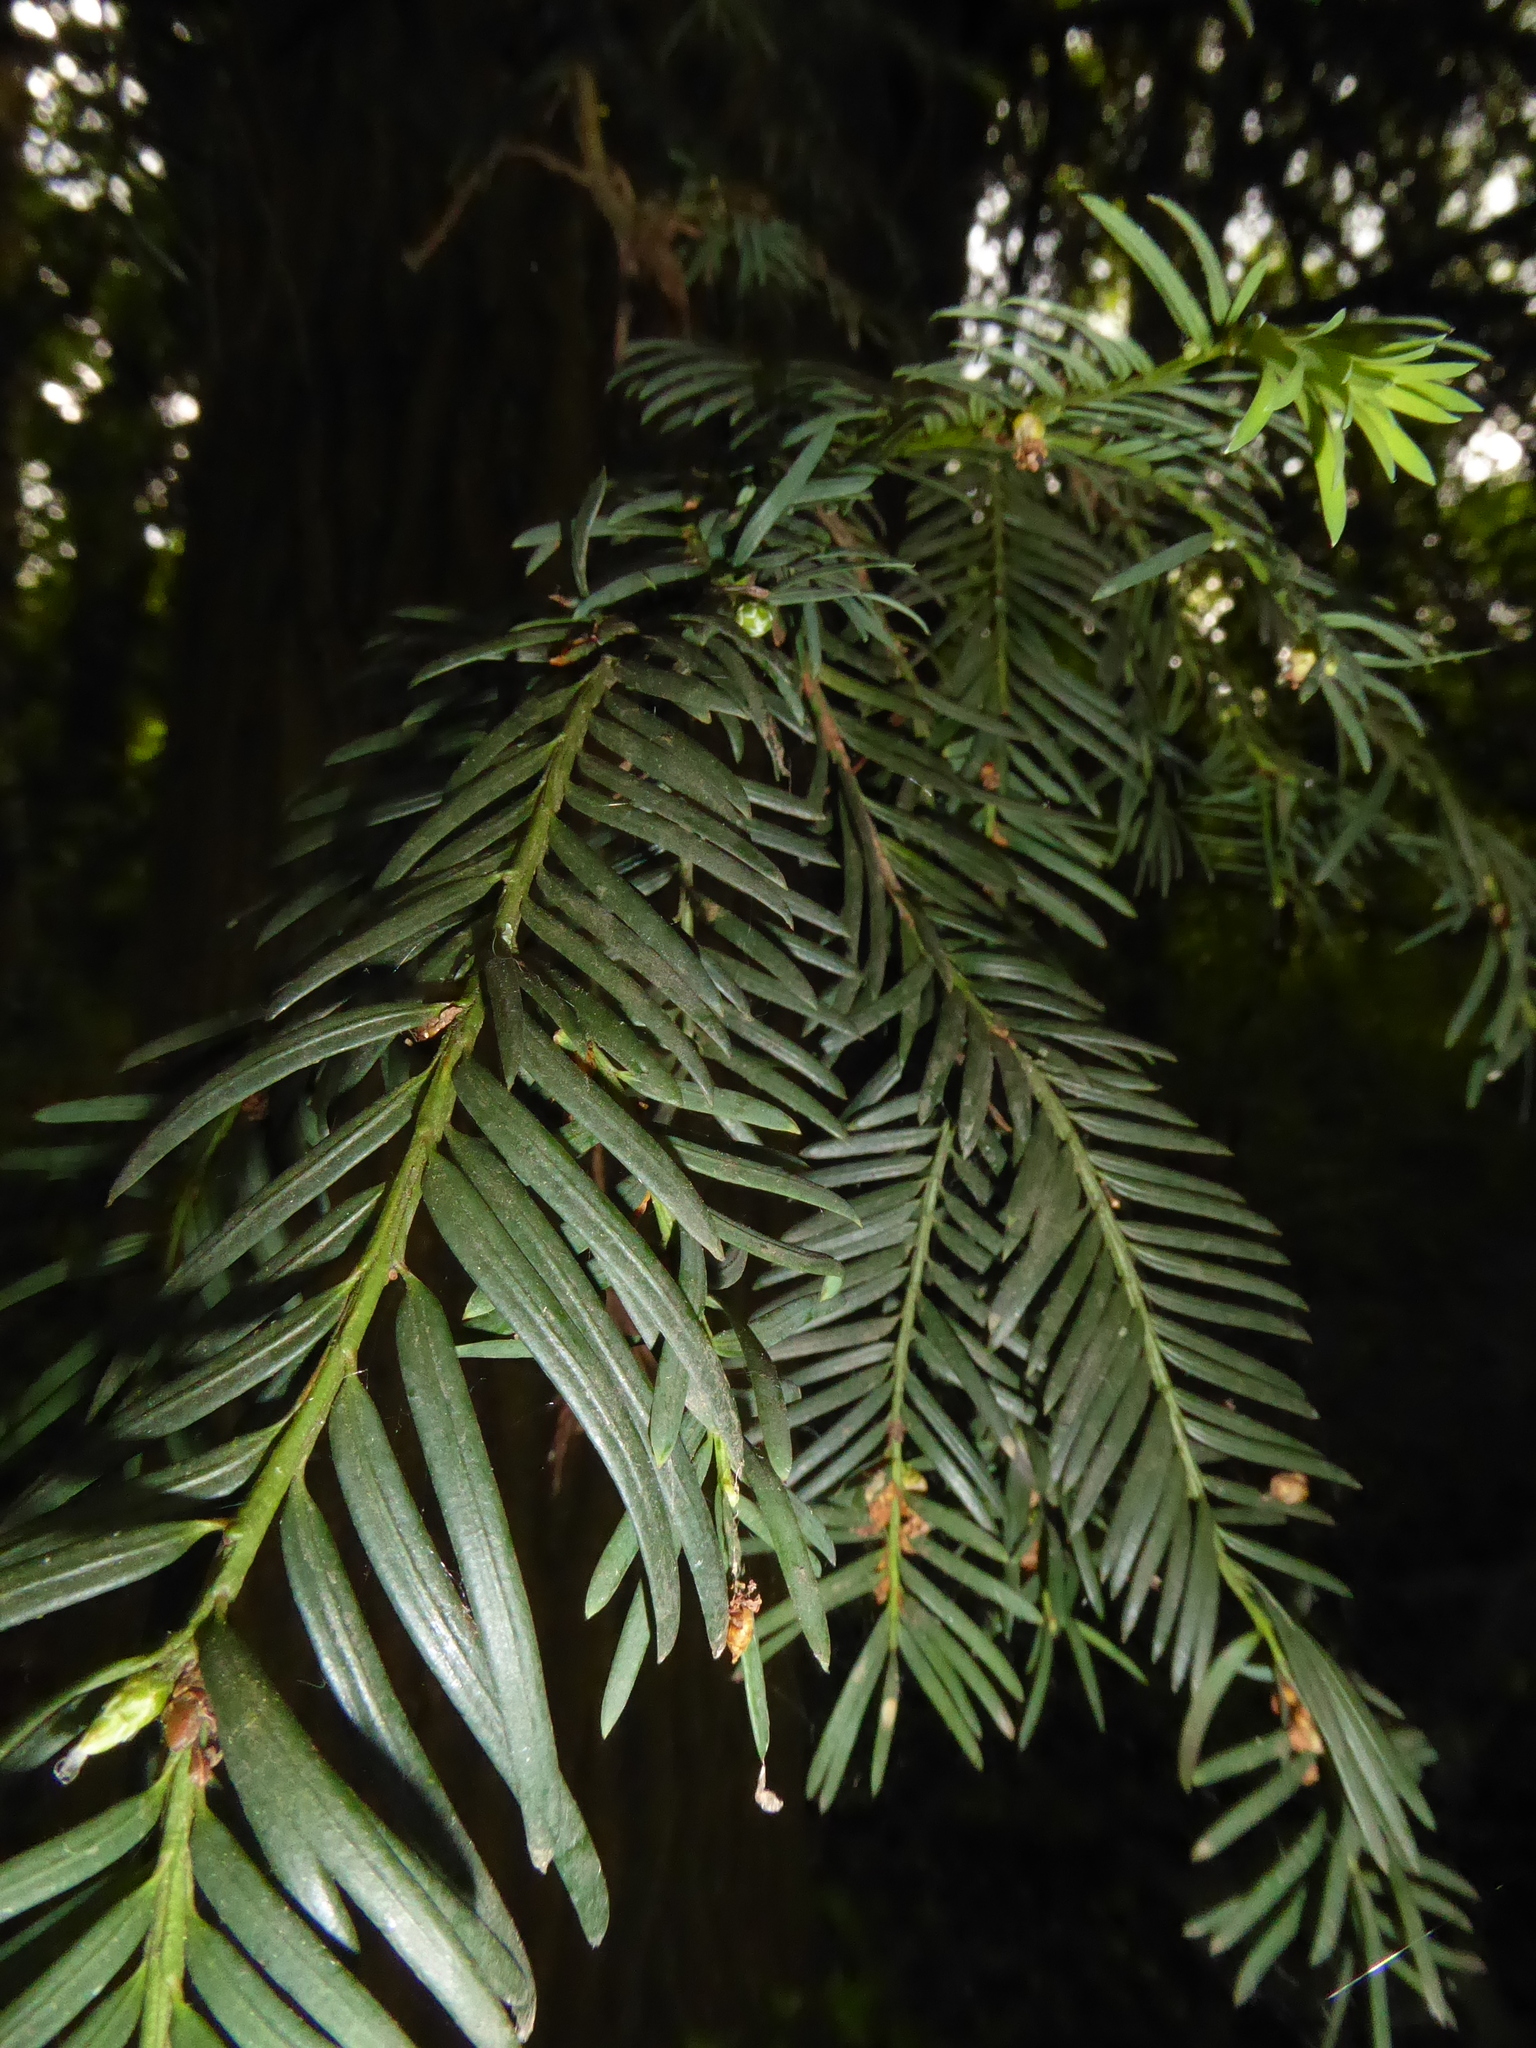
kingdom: Plantae
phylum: Tracheophyta
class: Pinopsida
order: Pinales
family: Taxaceae
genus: Taxus
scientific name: Taxus baccata
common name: Yew
